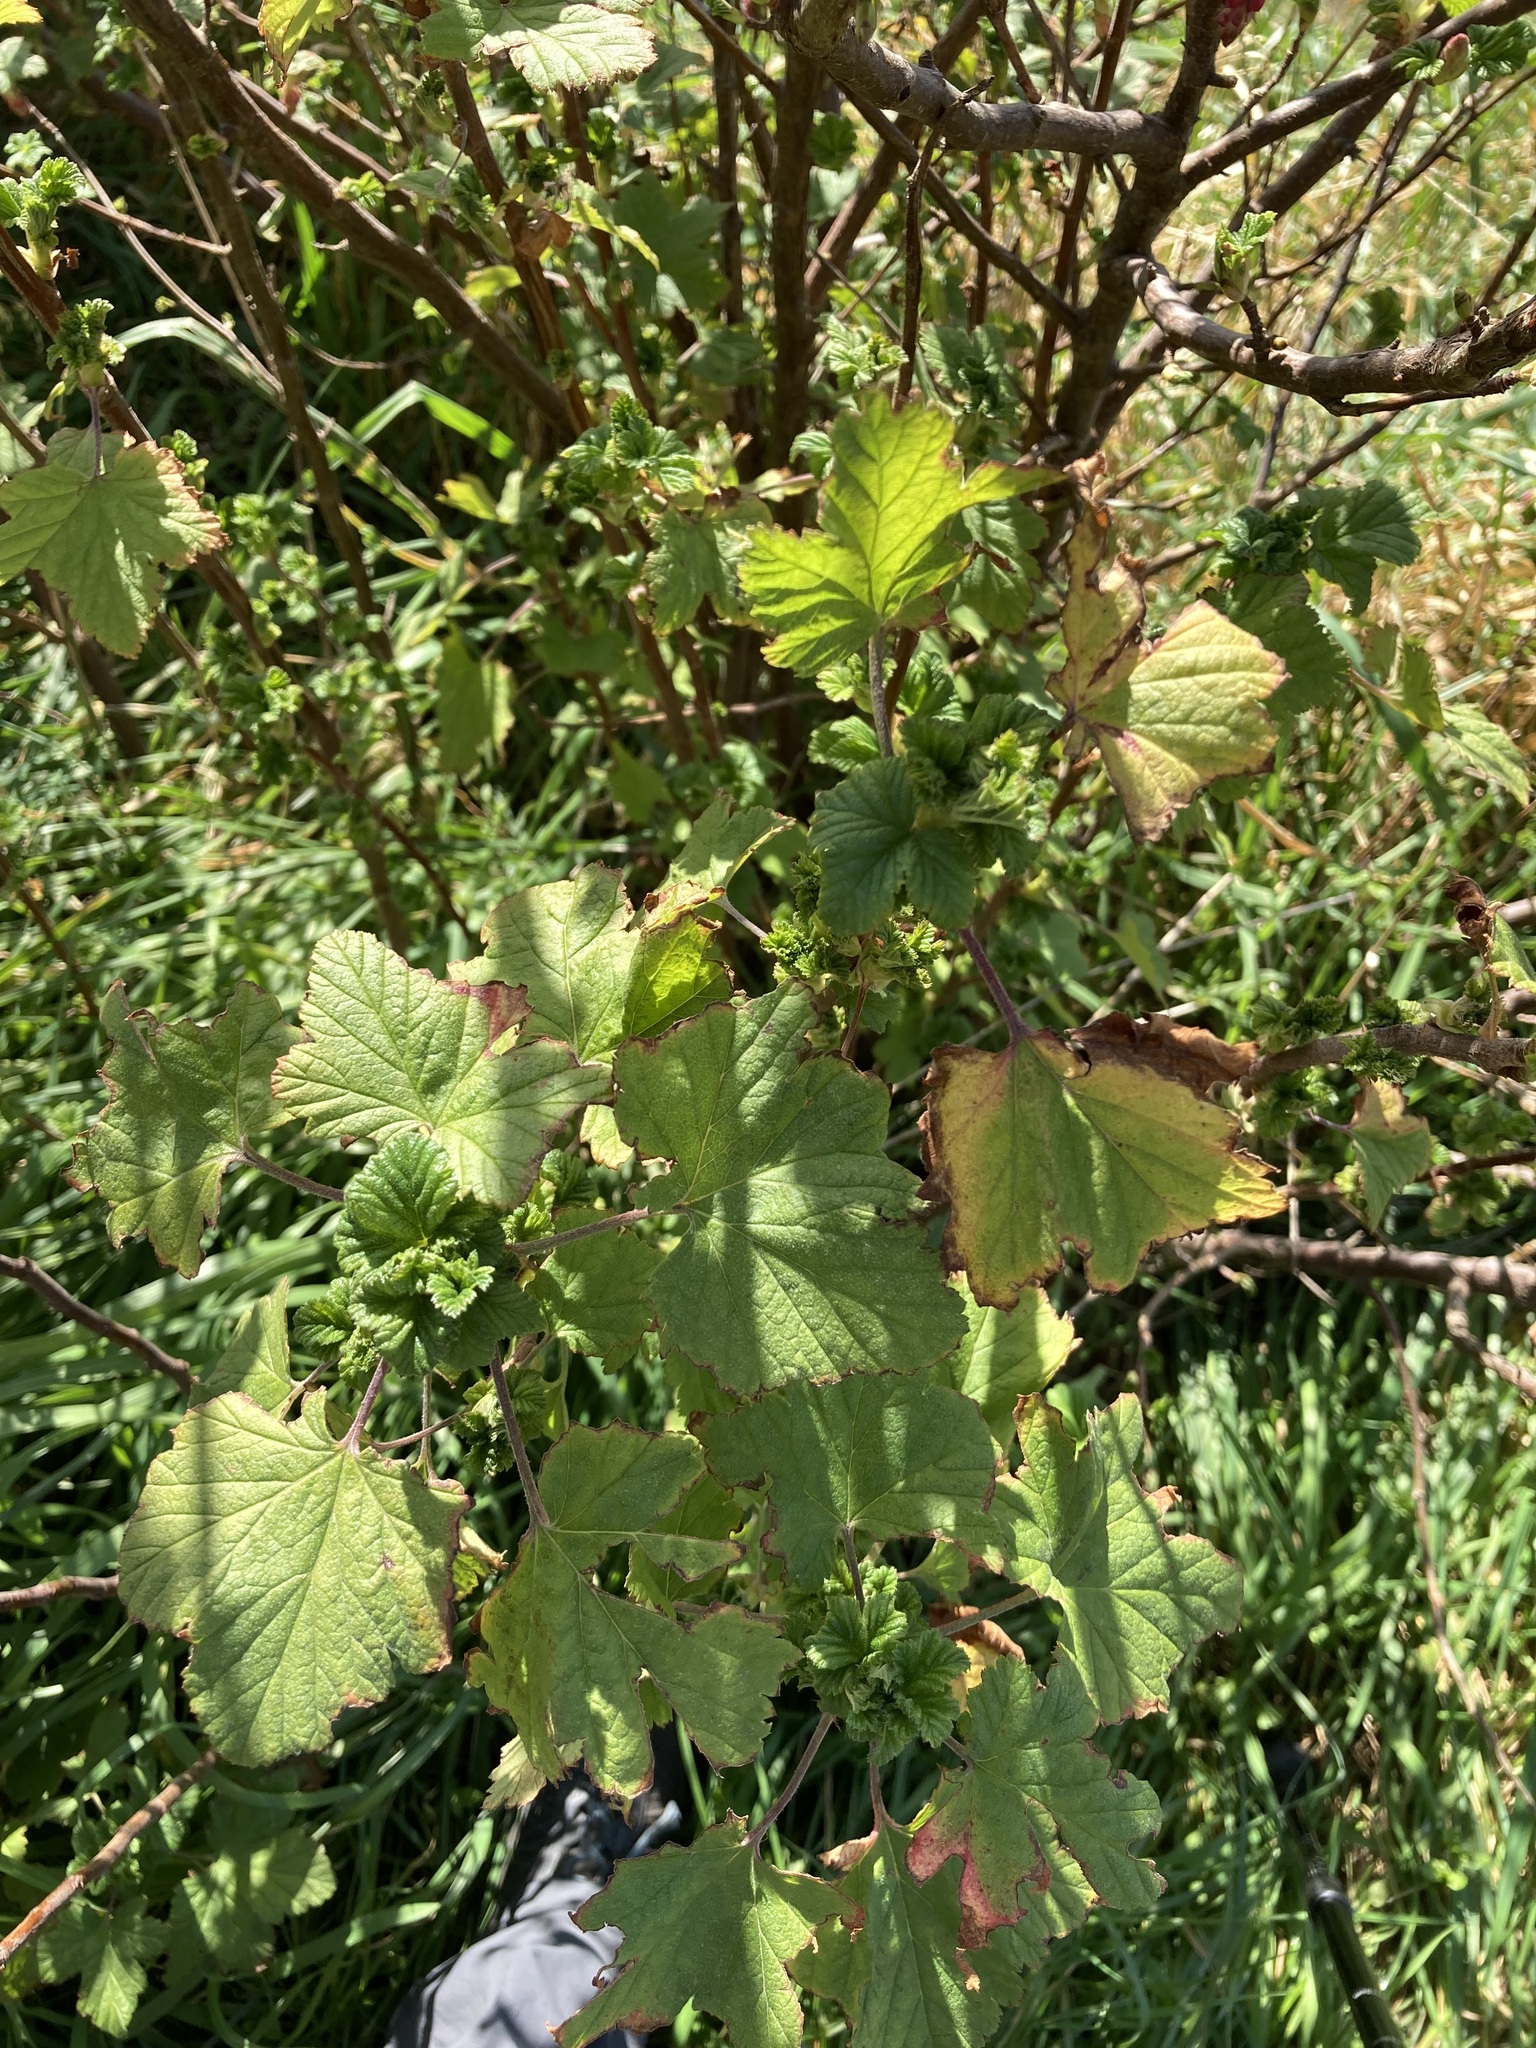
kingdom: Plantae
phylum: Tracheophyta
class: Magnoliopsida
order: Saxifragales
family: Grossulariaceae
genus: Ribes
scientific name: Ribes sanguineum
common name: Flowering currant
